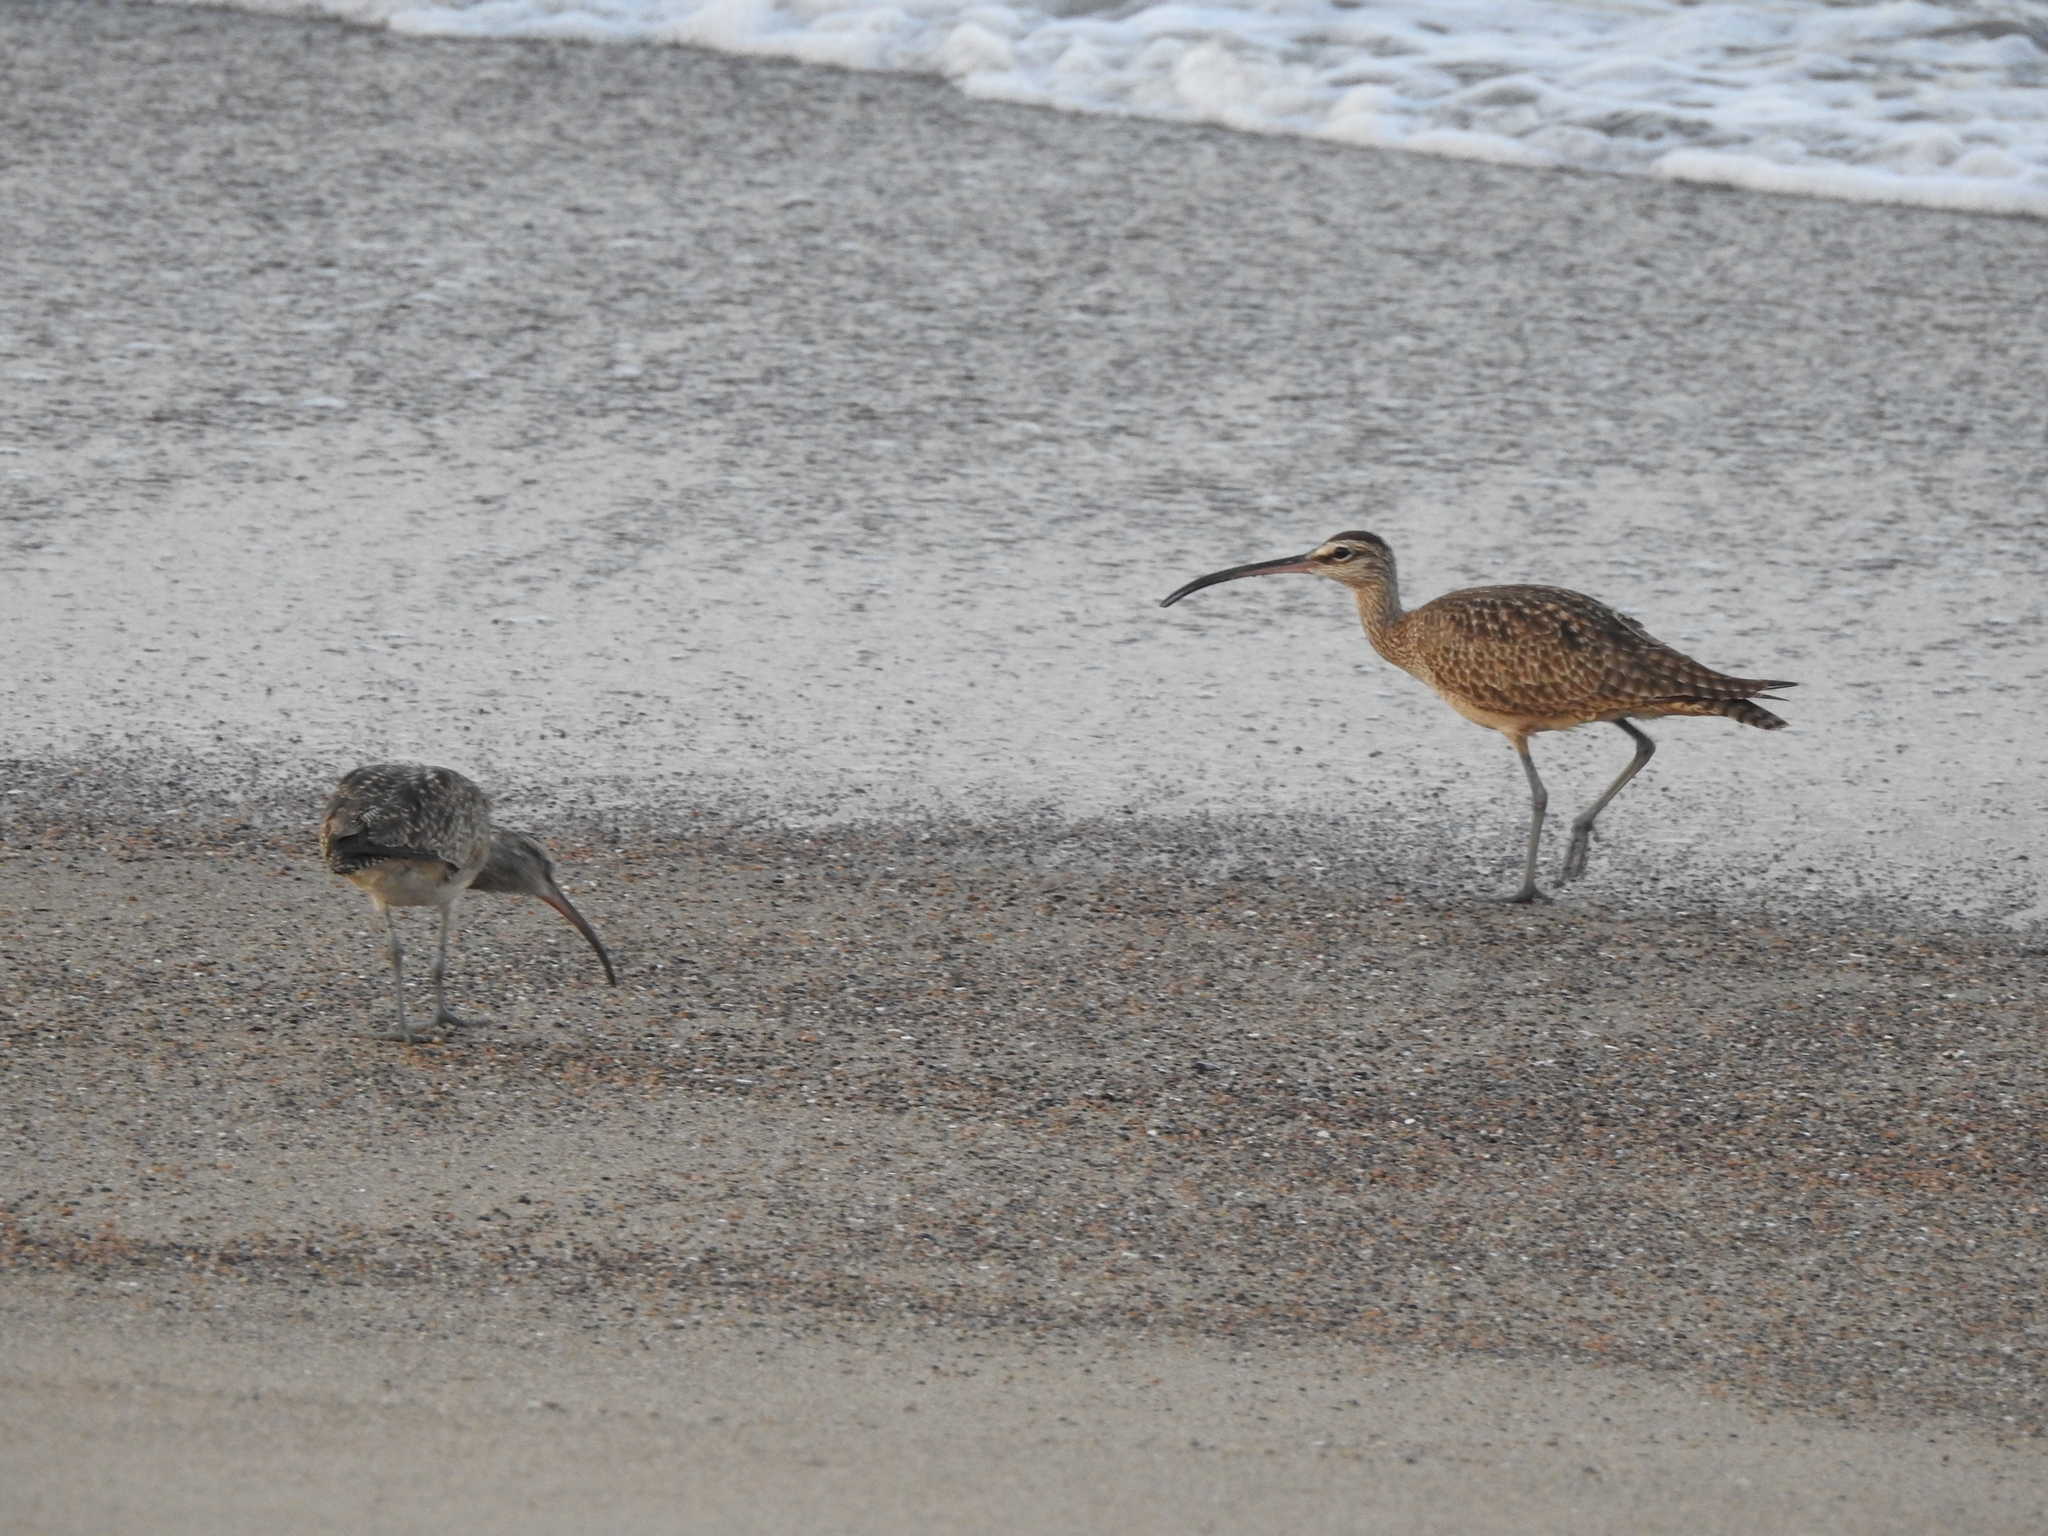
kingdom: Animalia
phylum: Chordata
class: Aves
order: Charadriiformes
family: Scolopacidae
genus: Numenius
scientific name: Numenius phaeopus
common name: Whimbrel
